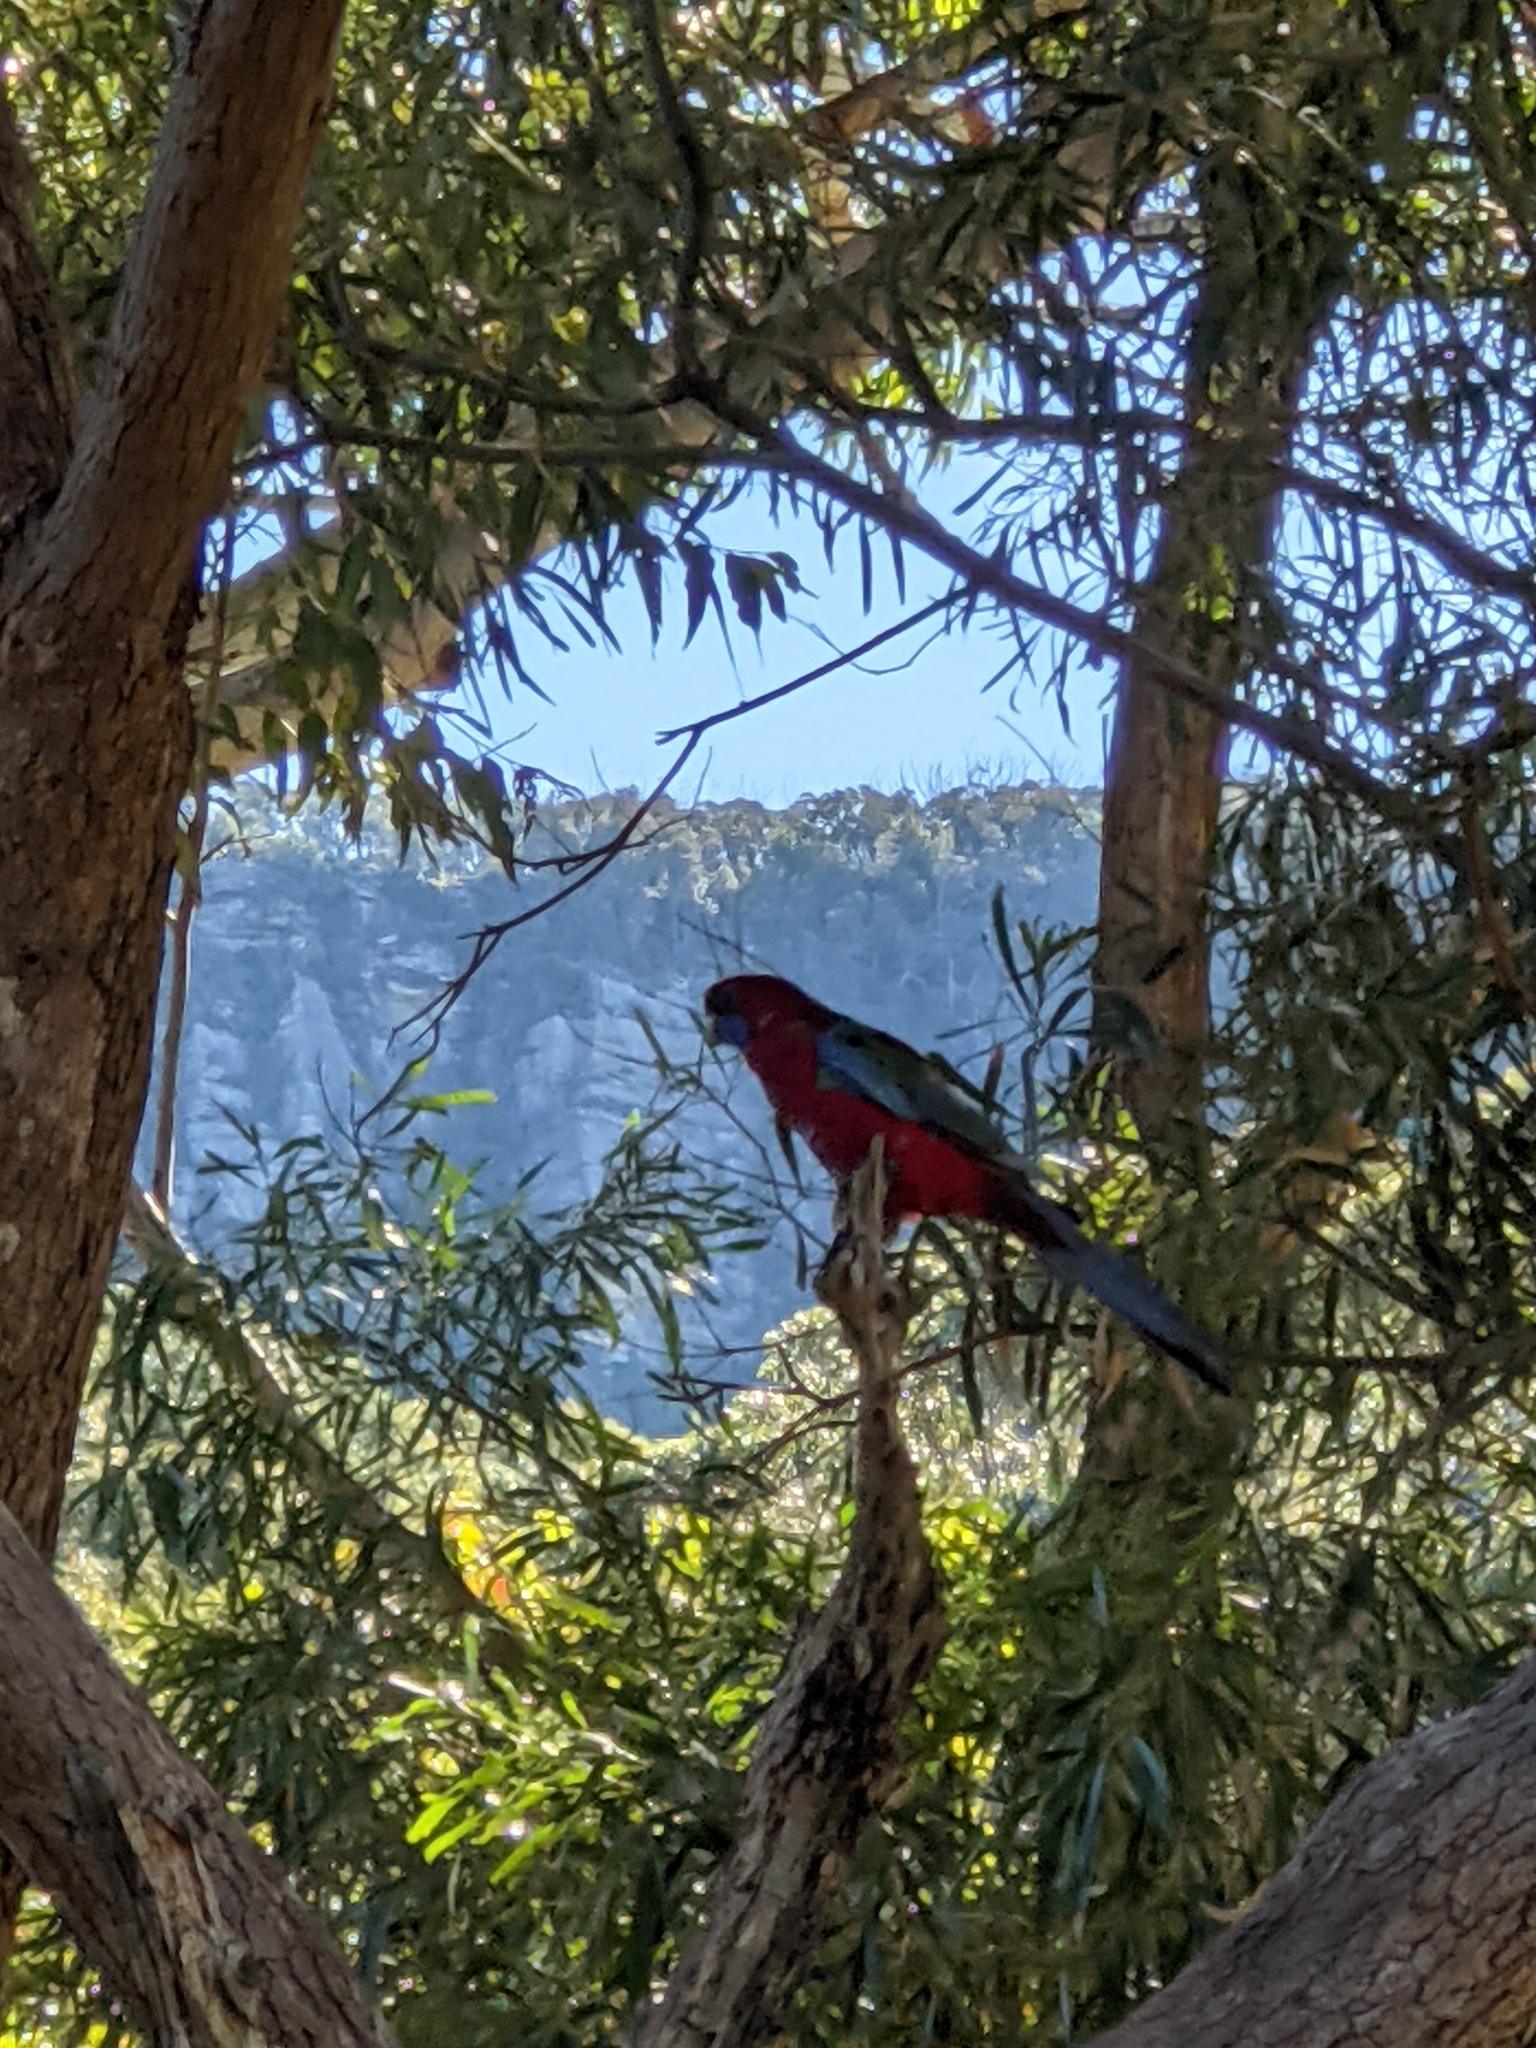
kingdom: Animalia
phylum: Chordata
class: Aves
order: Psittaciformes
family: Psittacidae
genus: Platycercus
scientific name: Platycercus elegans
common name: Crimson rosella
